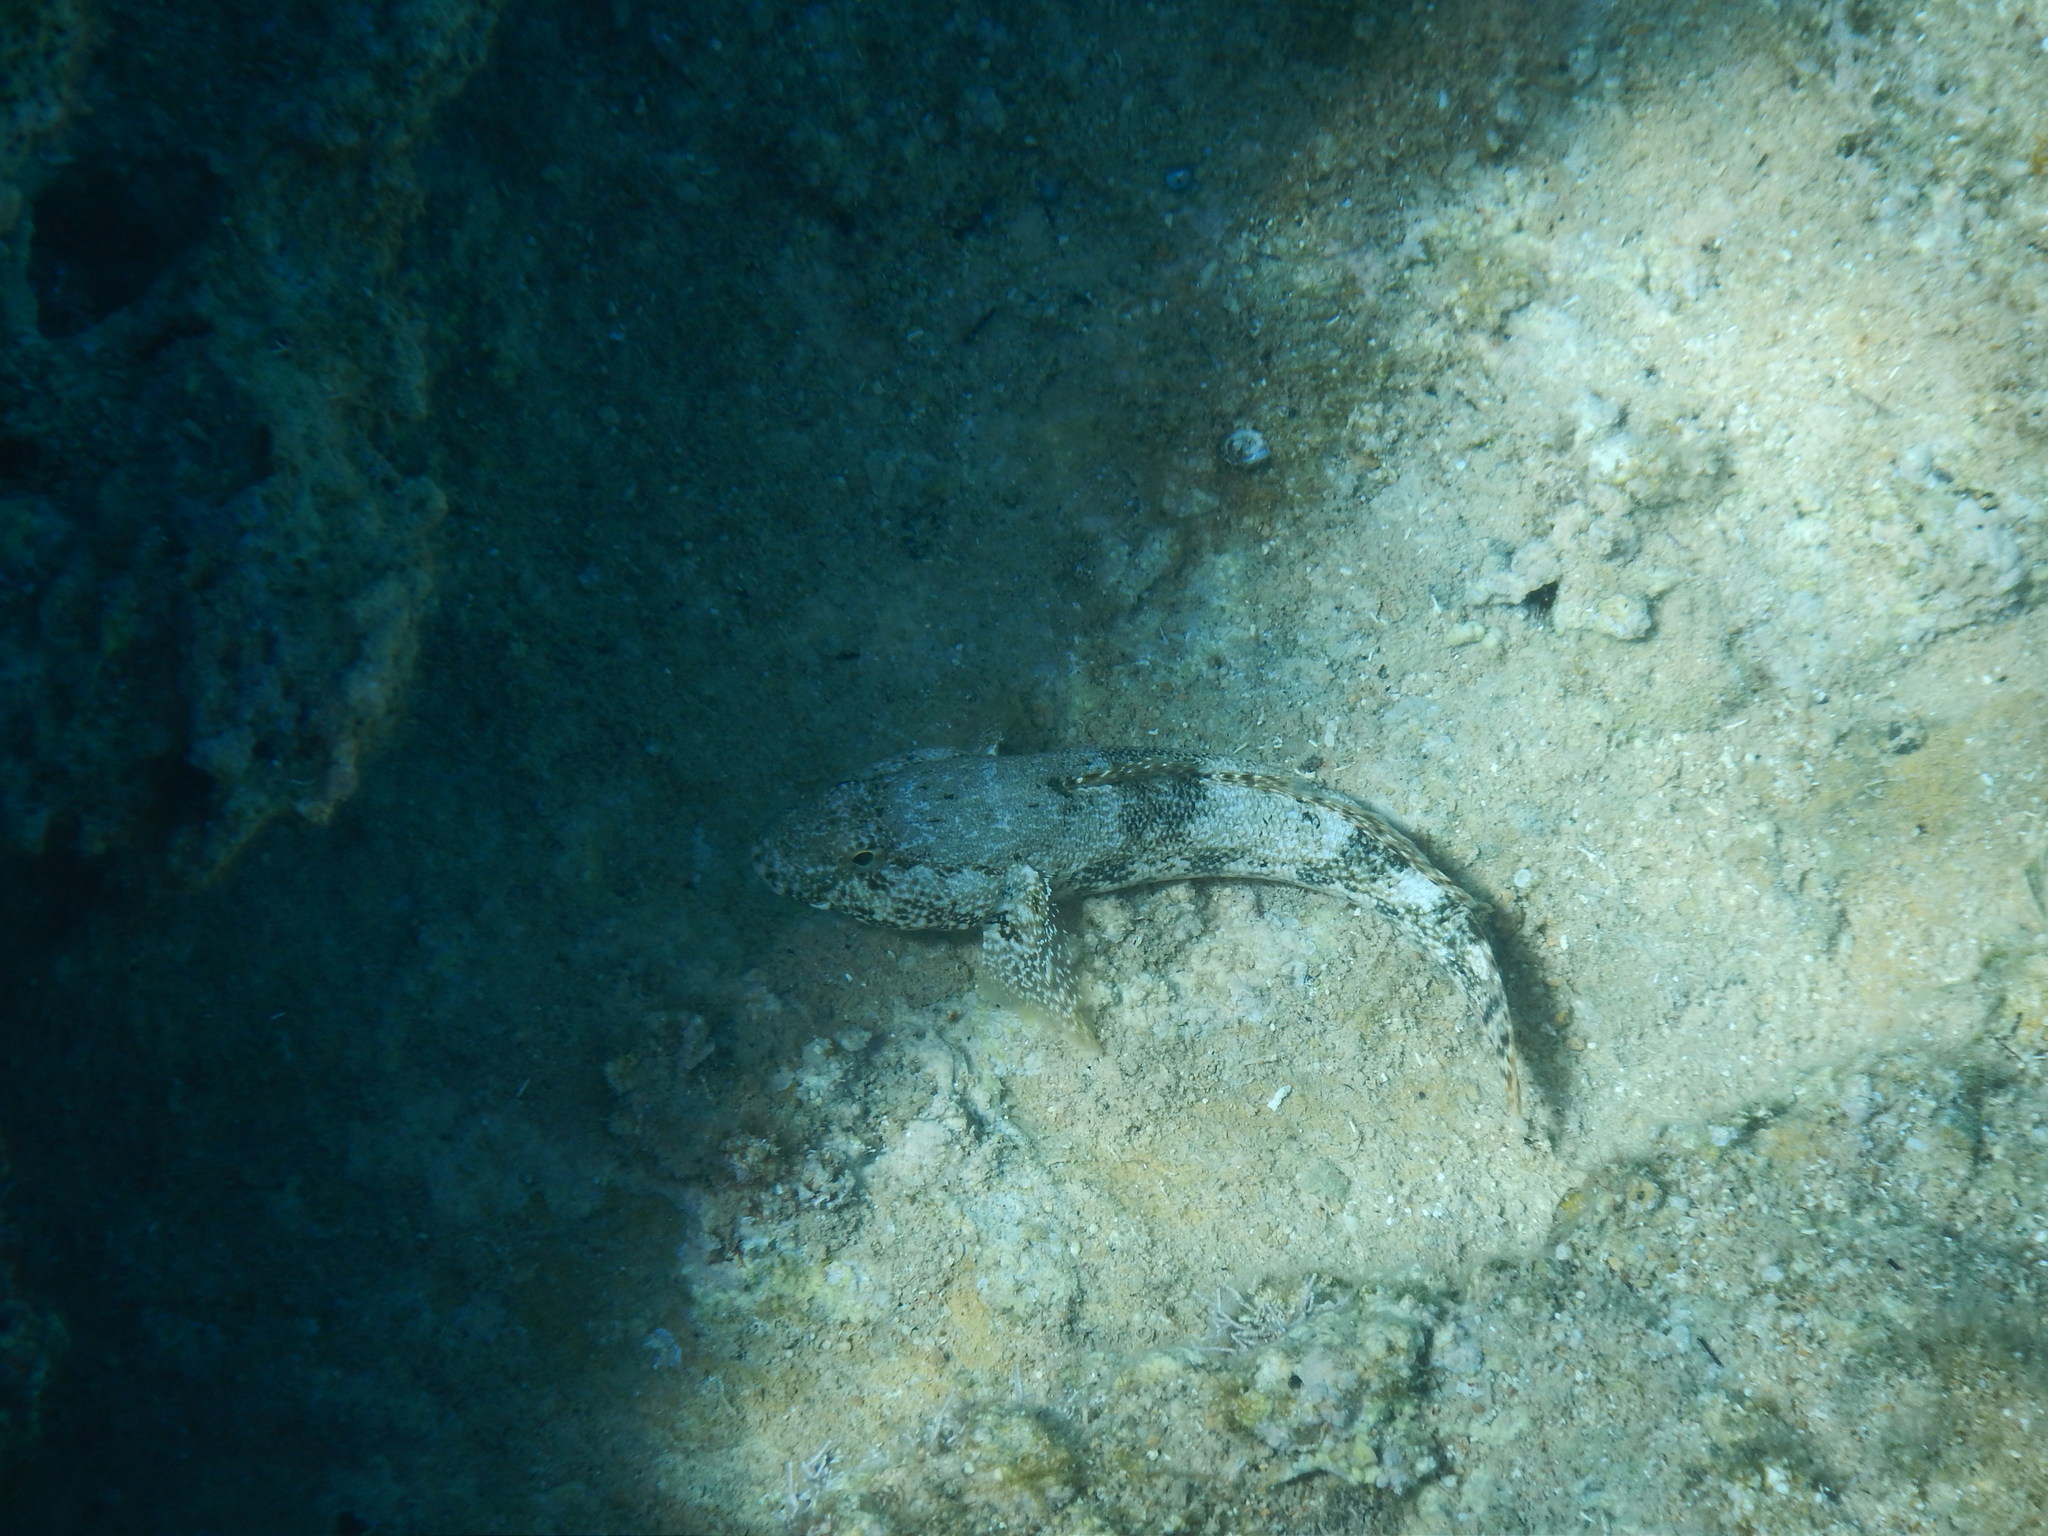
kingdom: Animalia
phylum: Chordata
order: Perciformes
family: Gobiidae
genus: Gobius
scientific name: Gobius cobitis
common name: Giant goby
